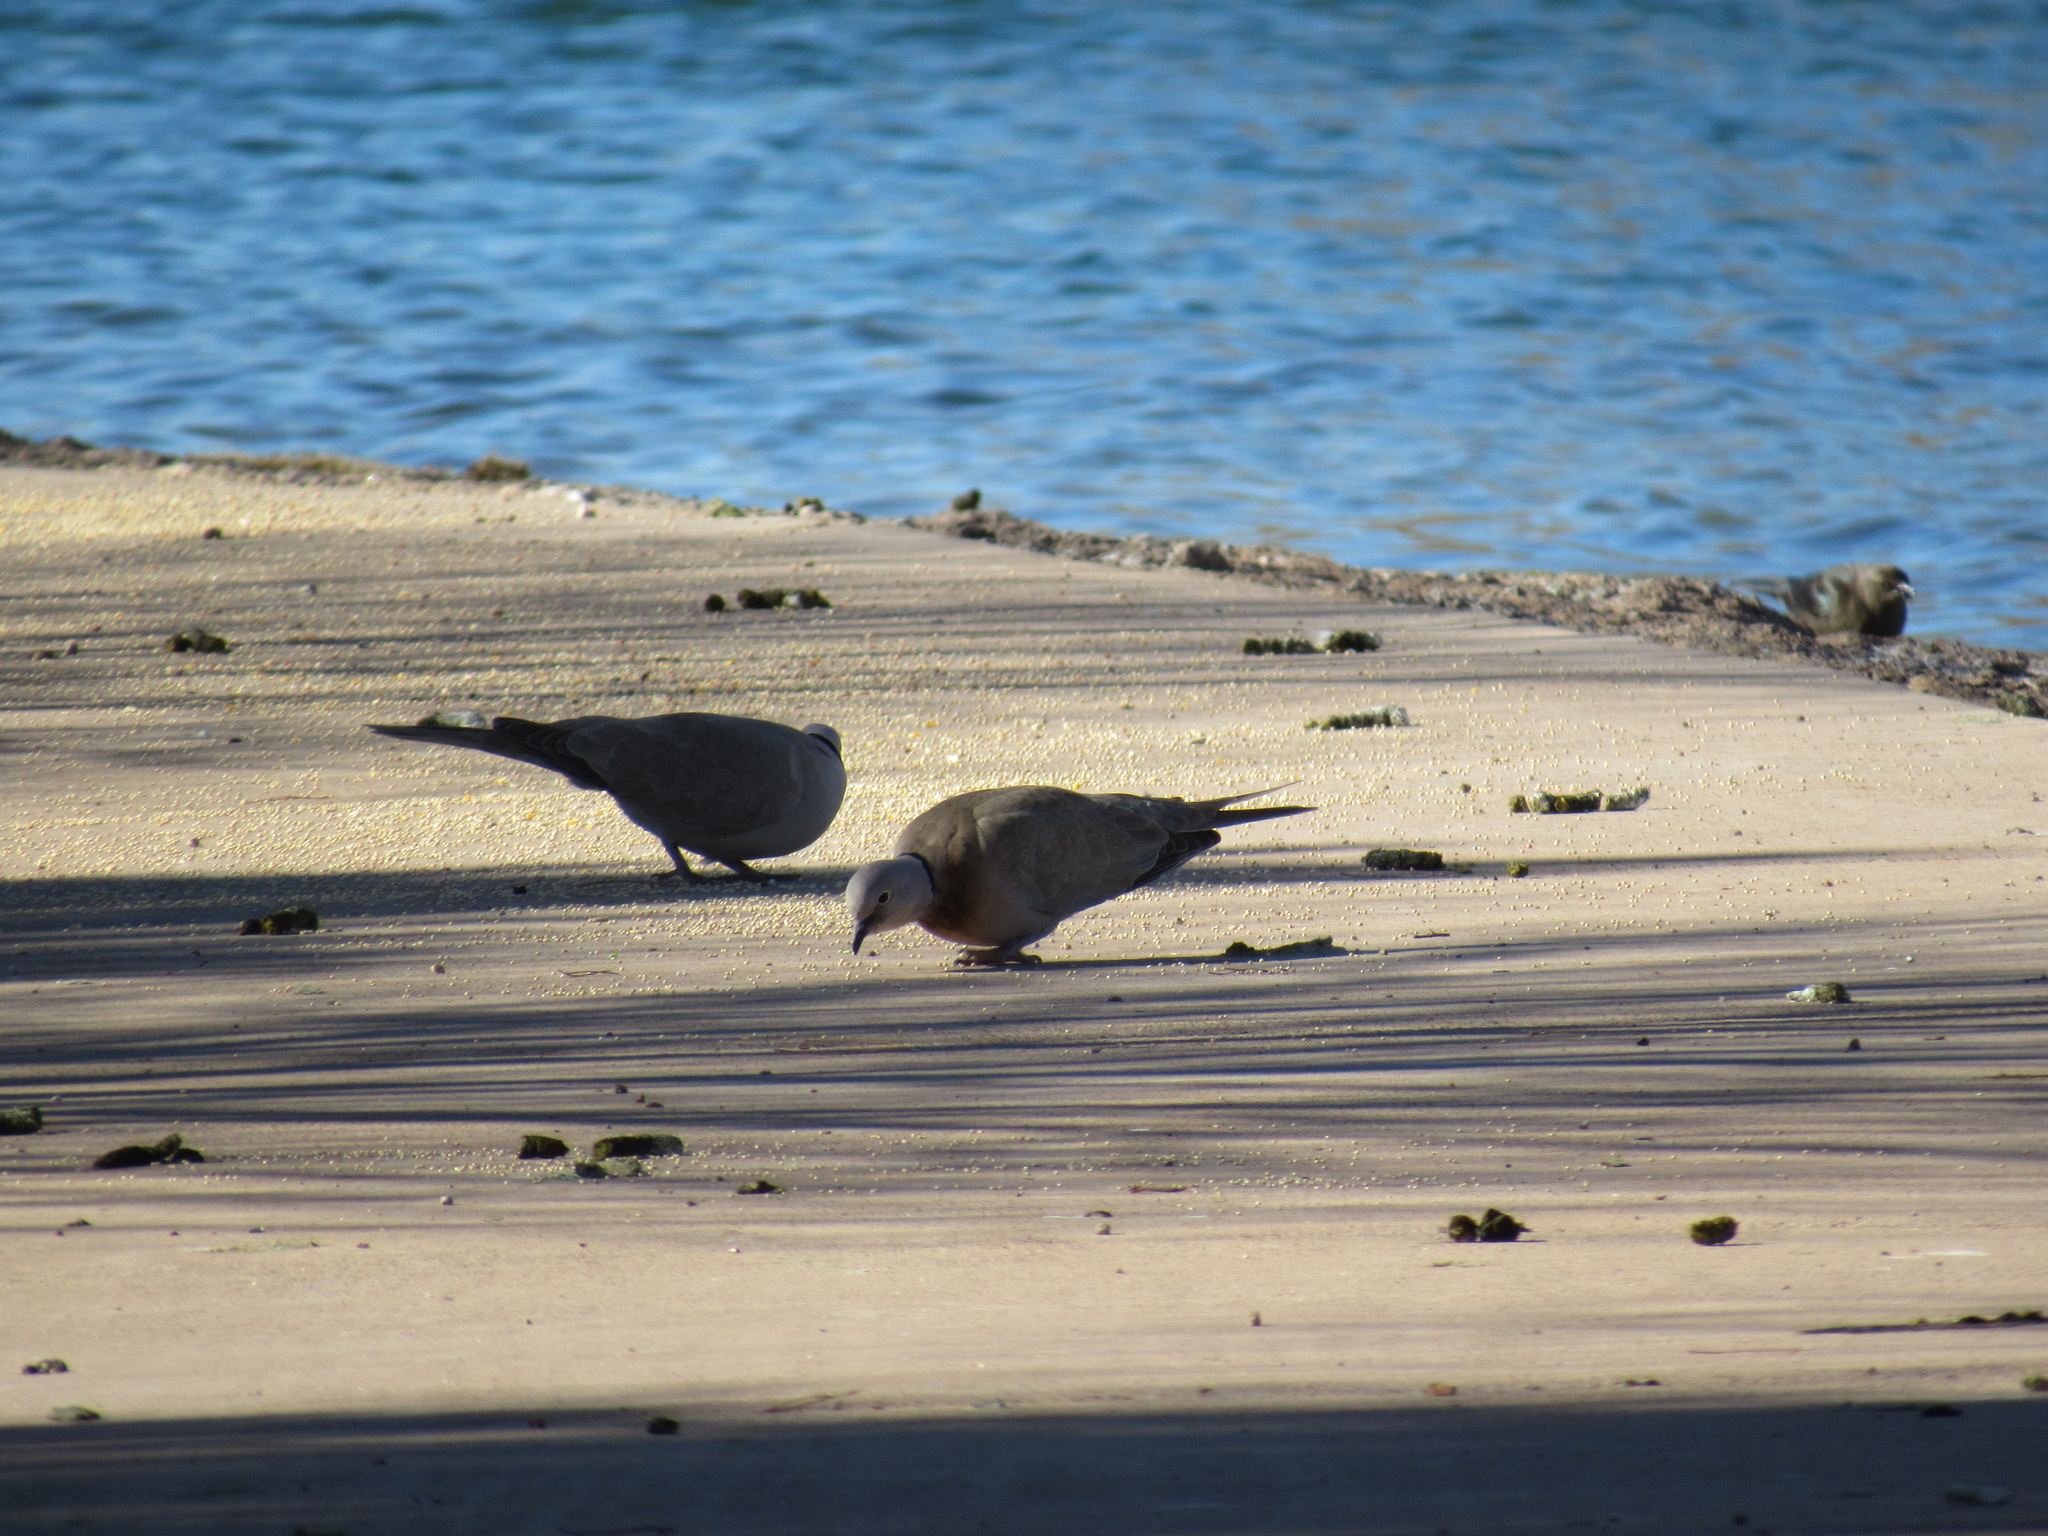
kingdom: Animalia
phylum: Chordata
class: Aves
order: Columbiformes
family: Columbidae
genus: Streptopelia
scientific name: Streptopelia decaocto
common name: Eurasian collared dove
